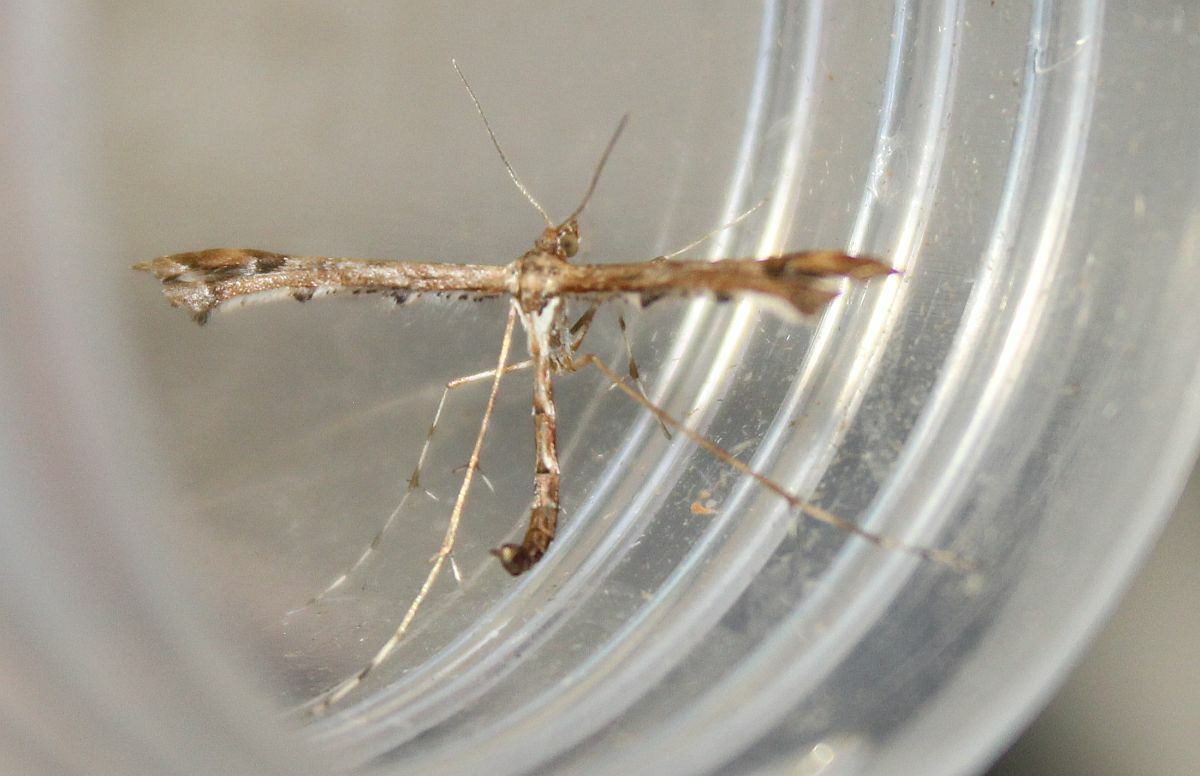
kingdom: Animalia
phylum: Arthropoda
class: Insecta
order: Lepidoptera
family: Pterophoridae
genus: Amblyptilia
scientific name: Amblyptilia acanthadactyla
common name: Beautiful plume
